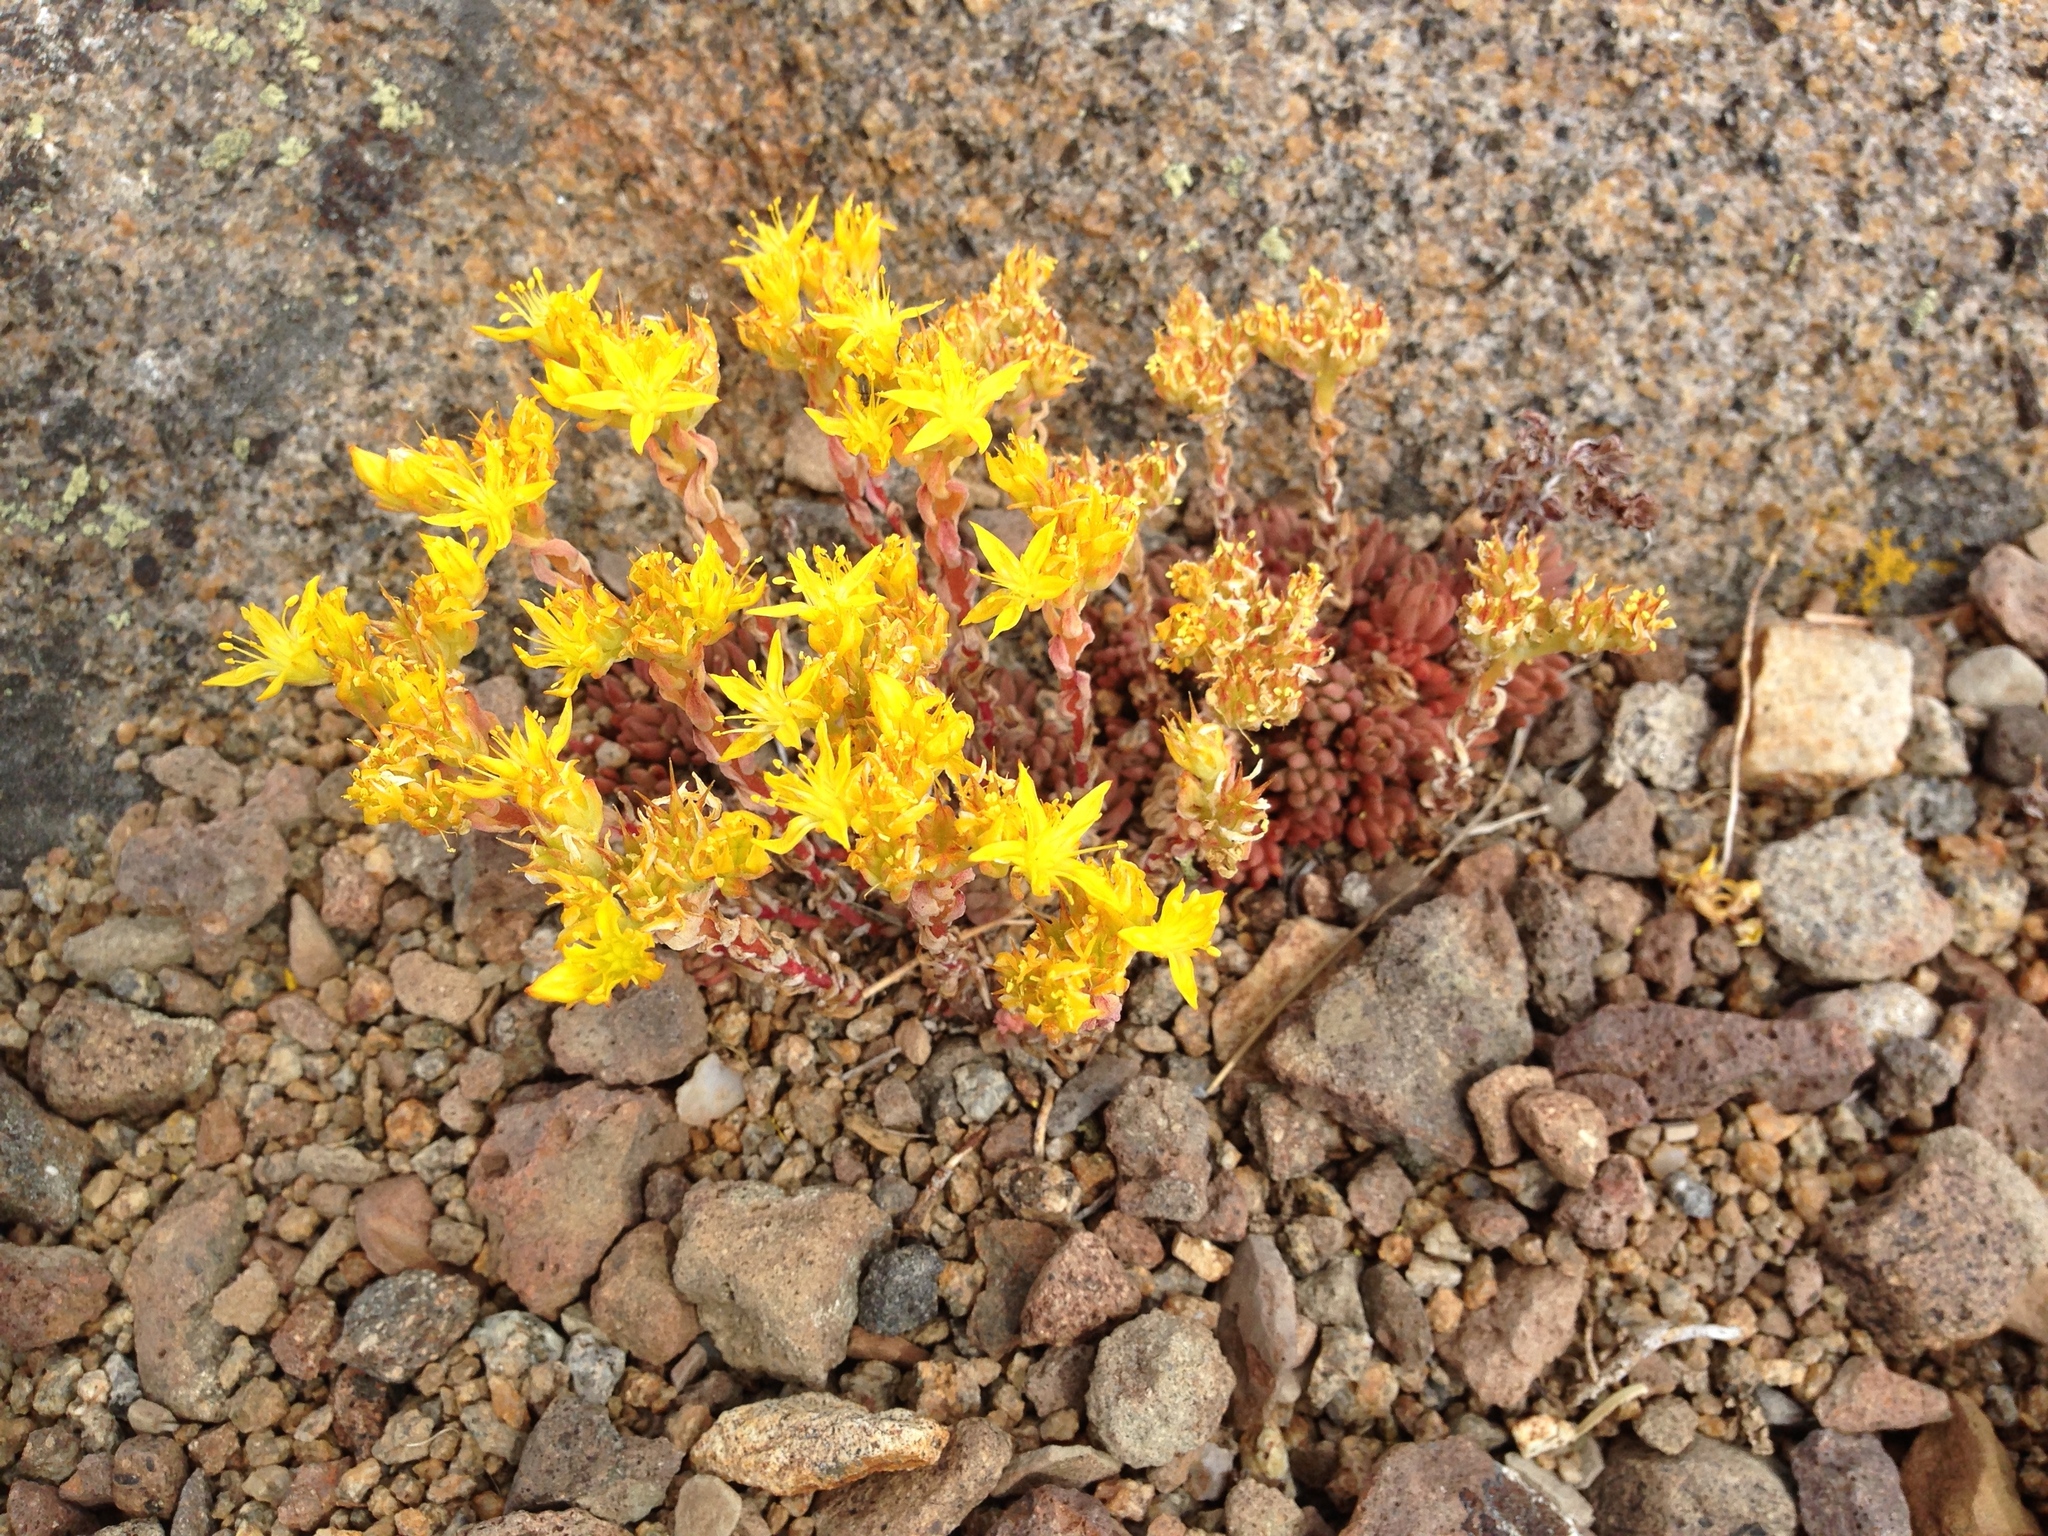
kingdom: Plantae
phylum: Tracheophyta
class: Magnoliopsida
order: Saxifragales
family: Crassulaceae
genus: Sedum
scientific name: Sedum lanceolatum
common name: Common stonecrop
